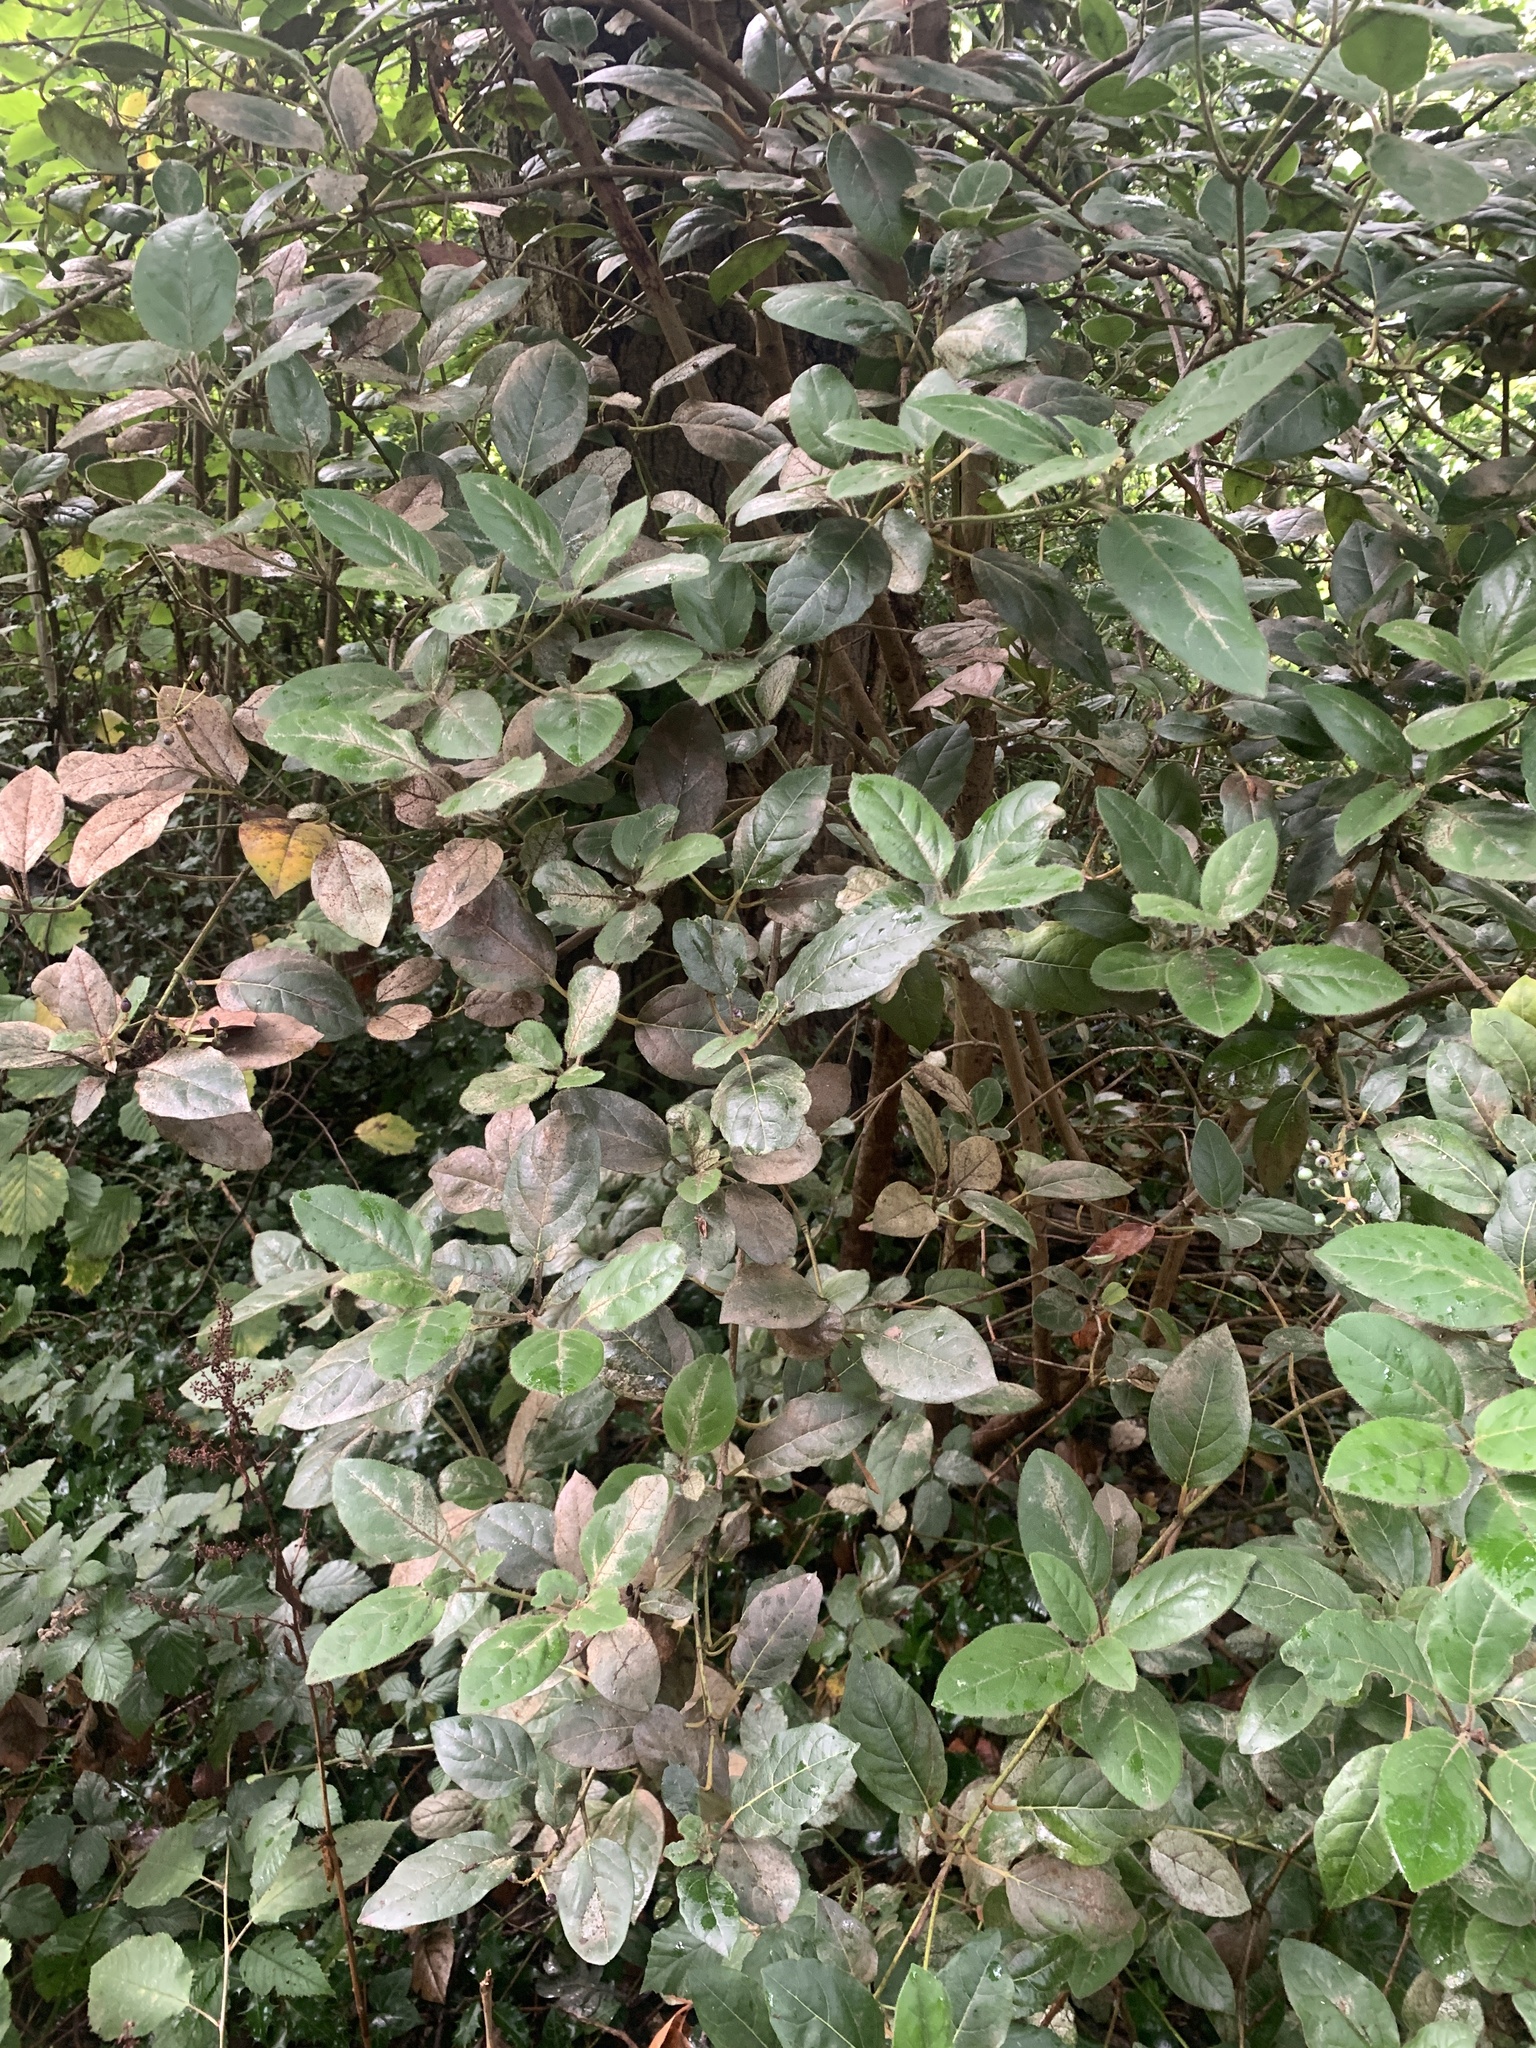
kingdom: Plantae
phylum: Tracheophyta
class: Magnoliopsida
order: Dipsacales
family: Viburnaceae
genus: Viburnum
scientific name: Viburnum tinus
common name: Laurustinus
